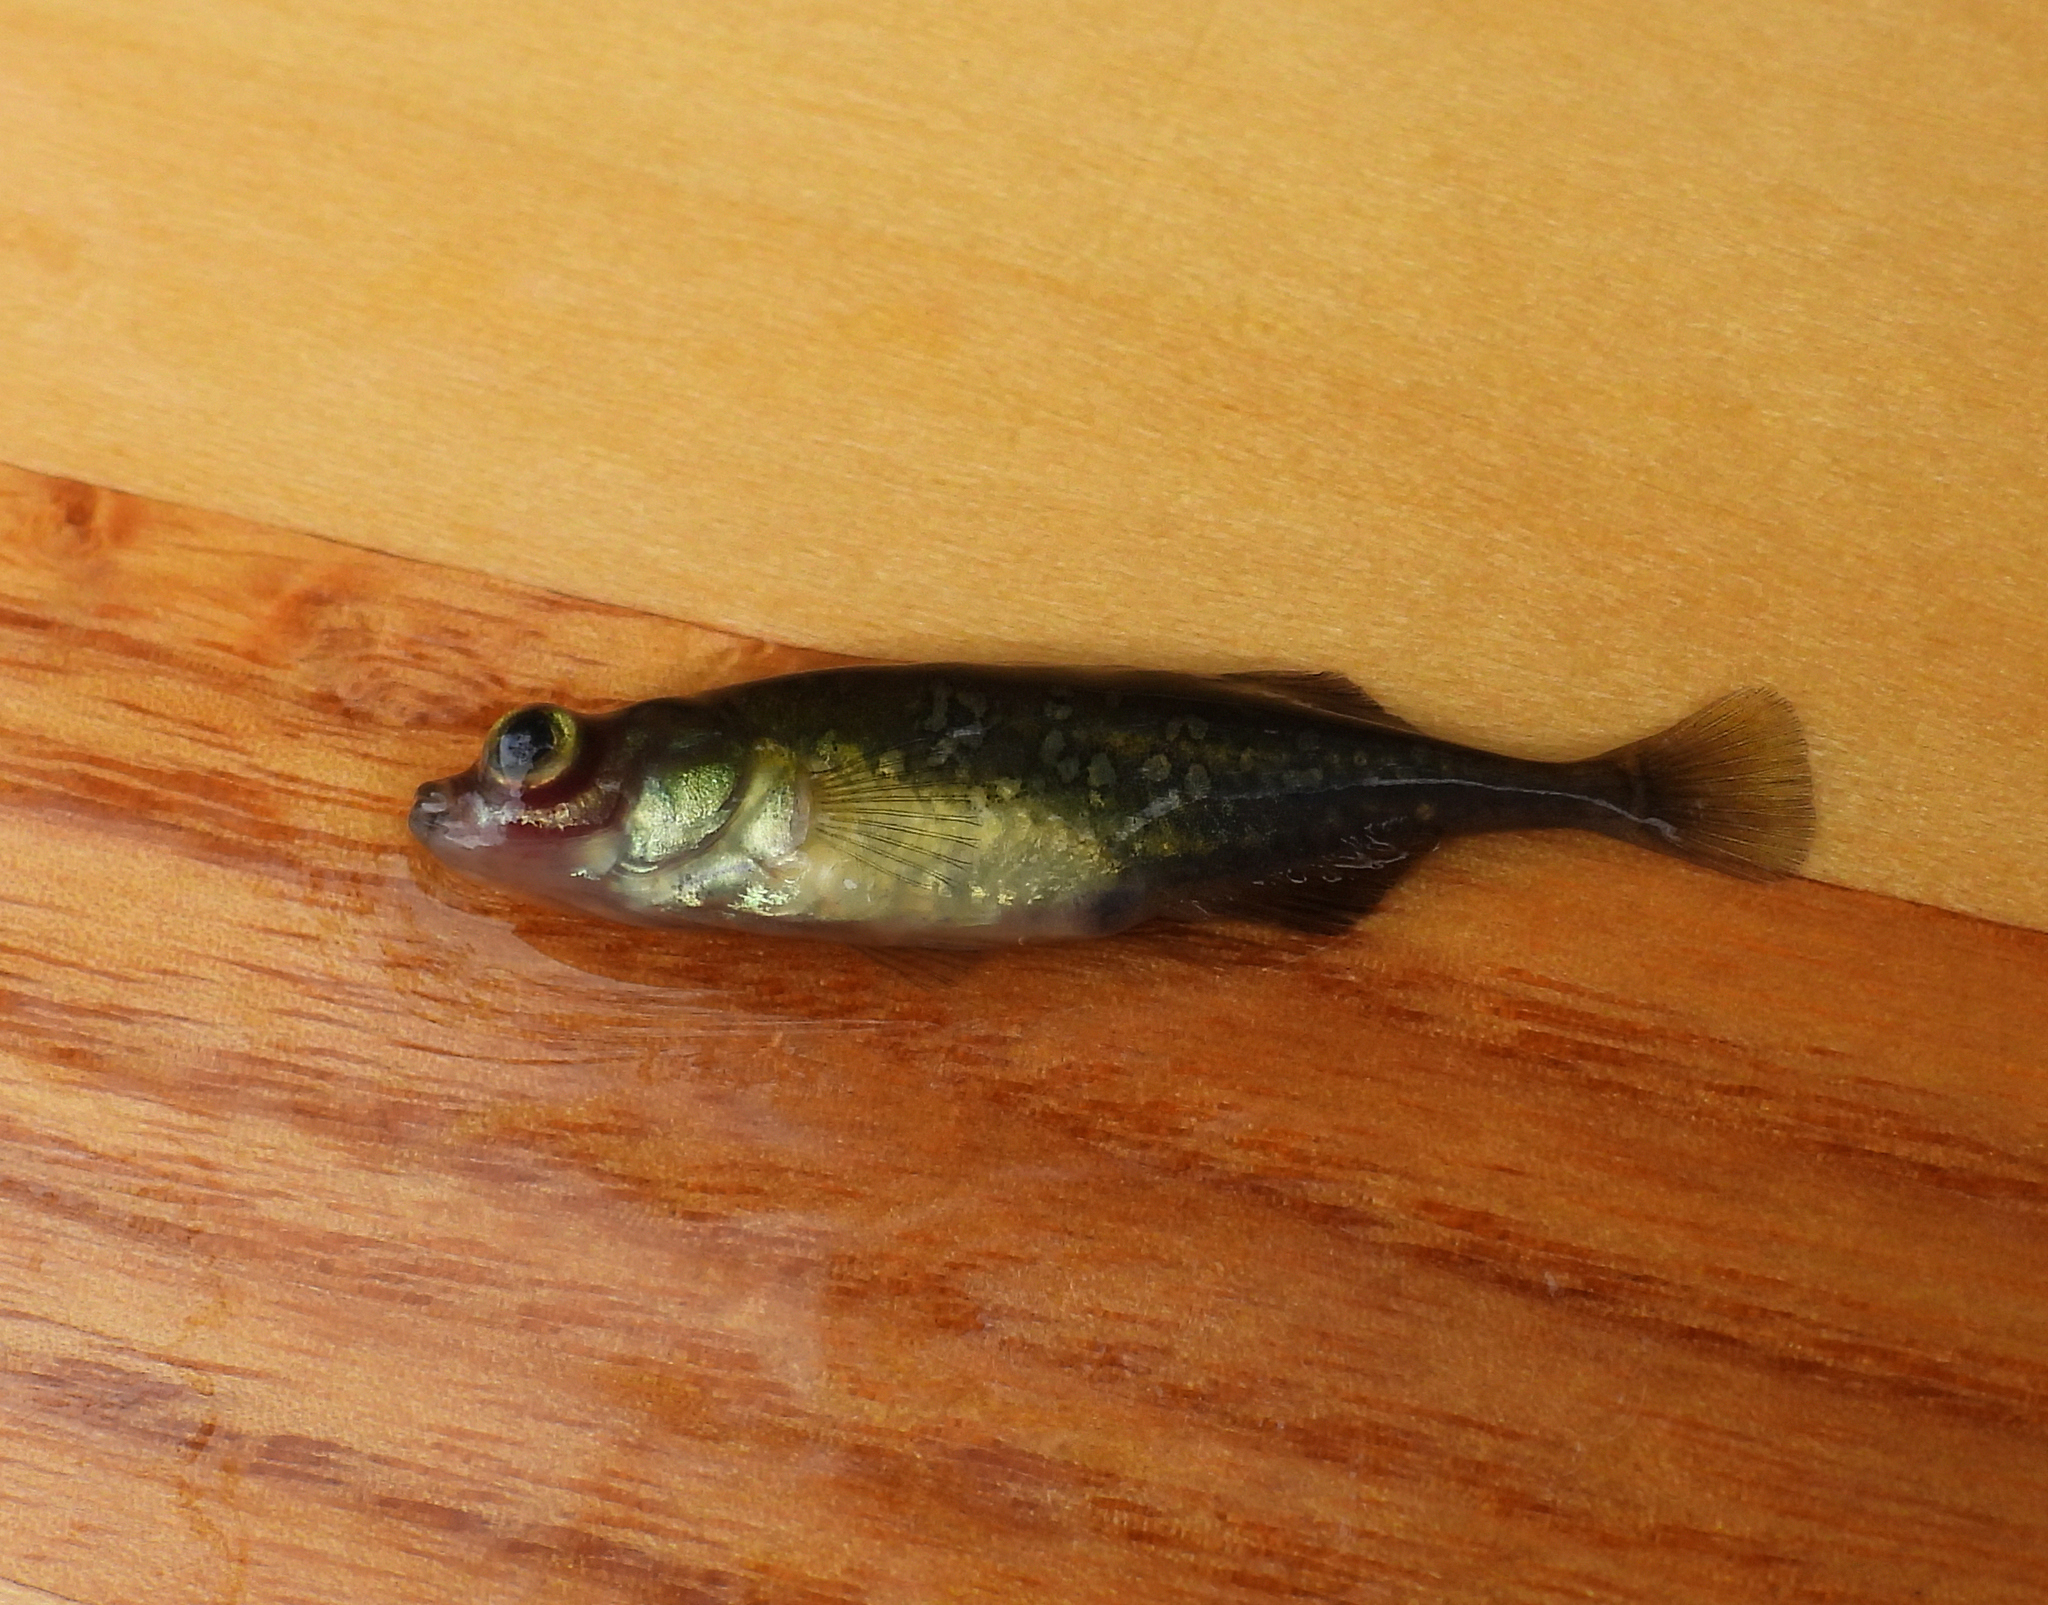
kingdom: Animalia
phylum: Chordata
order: Gasterosteiformes
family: Gasterosteidae
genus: Culaea
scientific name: Culaea inconstans
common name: Brook stickleback
